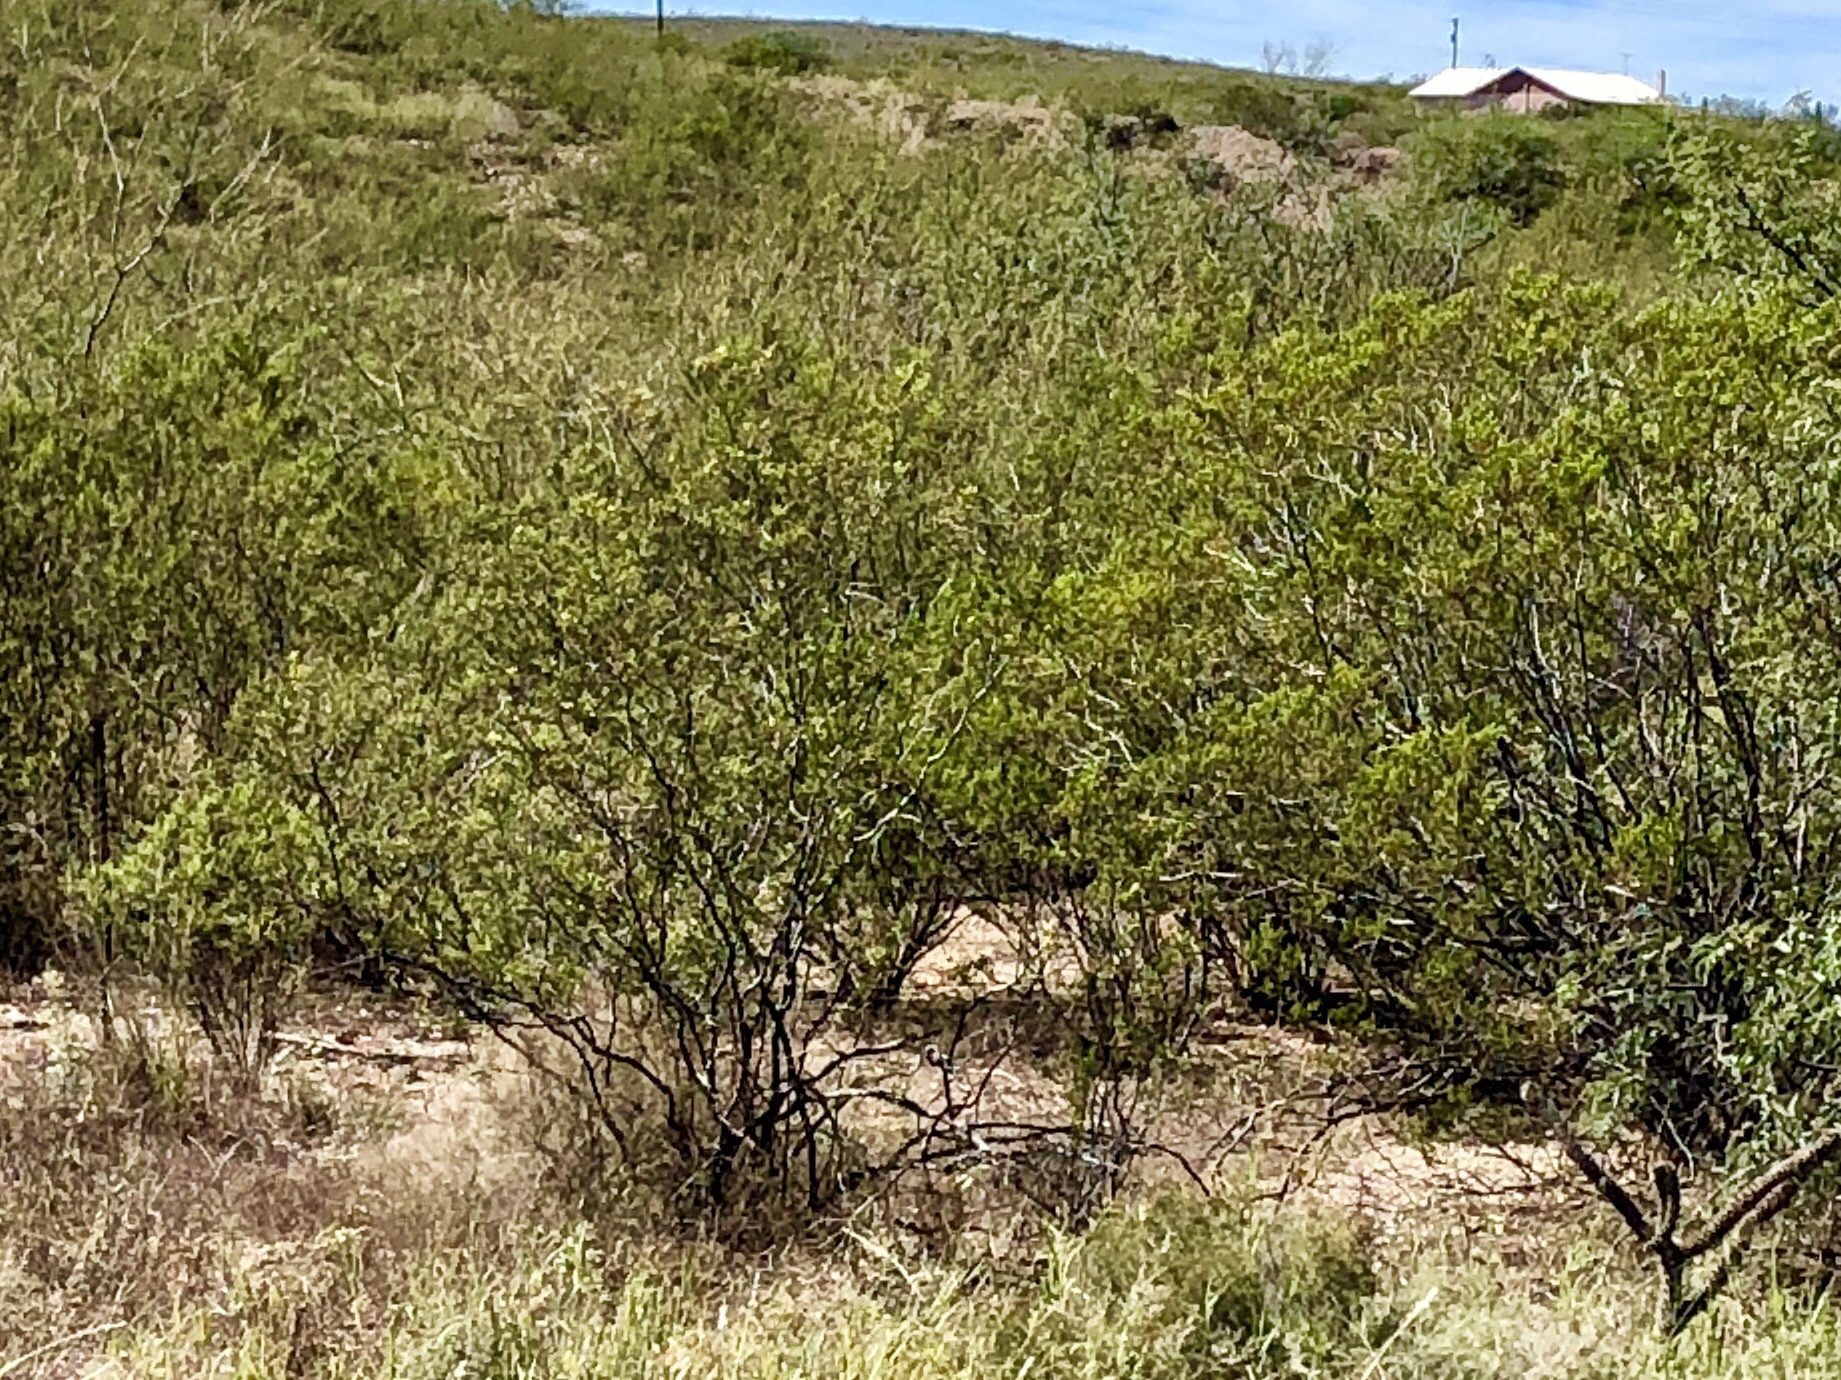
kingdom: Plantae
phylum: Tracheophyta
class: Magnoliopsida
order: Zygophyllales
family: Zygophyllaceae
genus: Larrea
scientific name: Larrea tridentata
